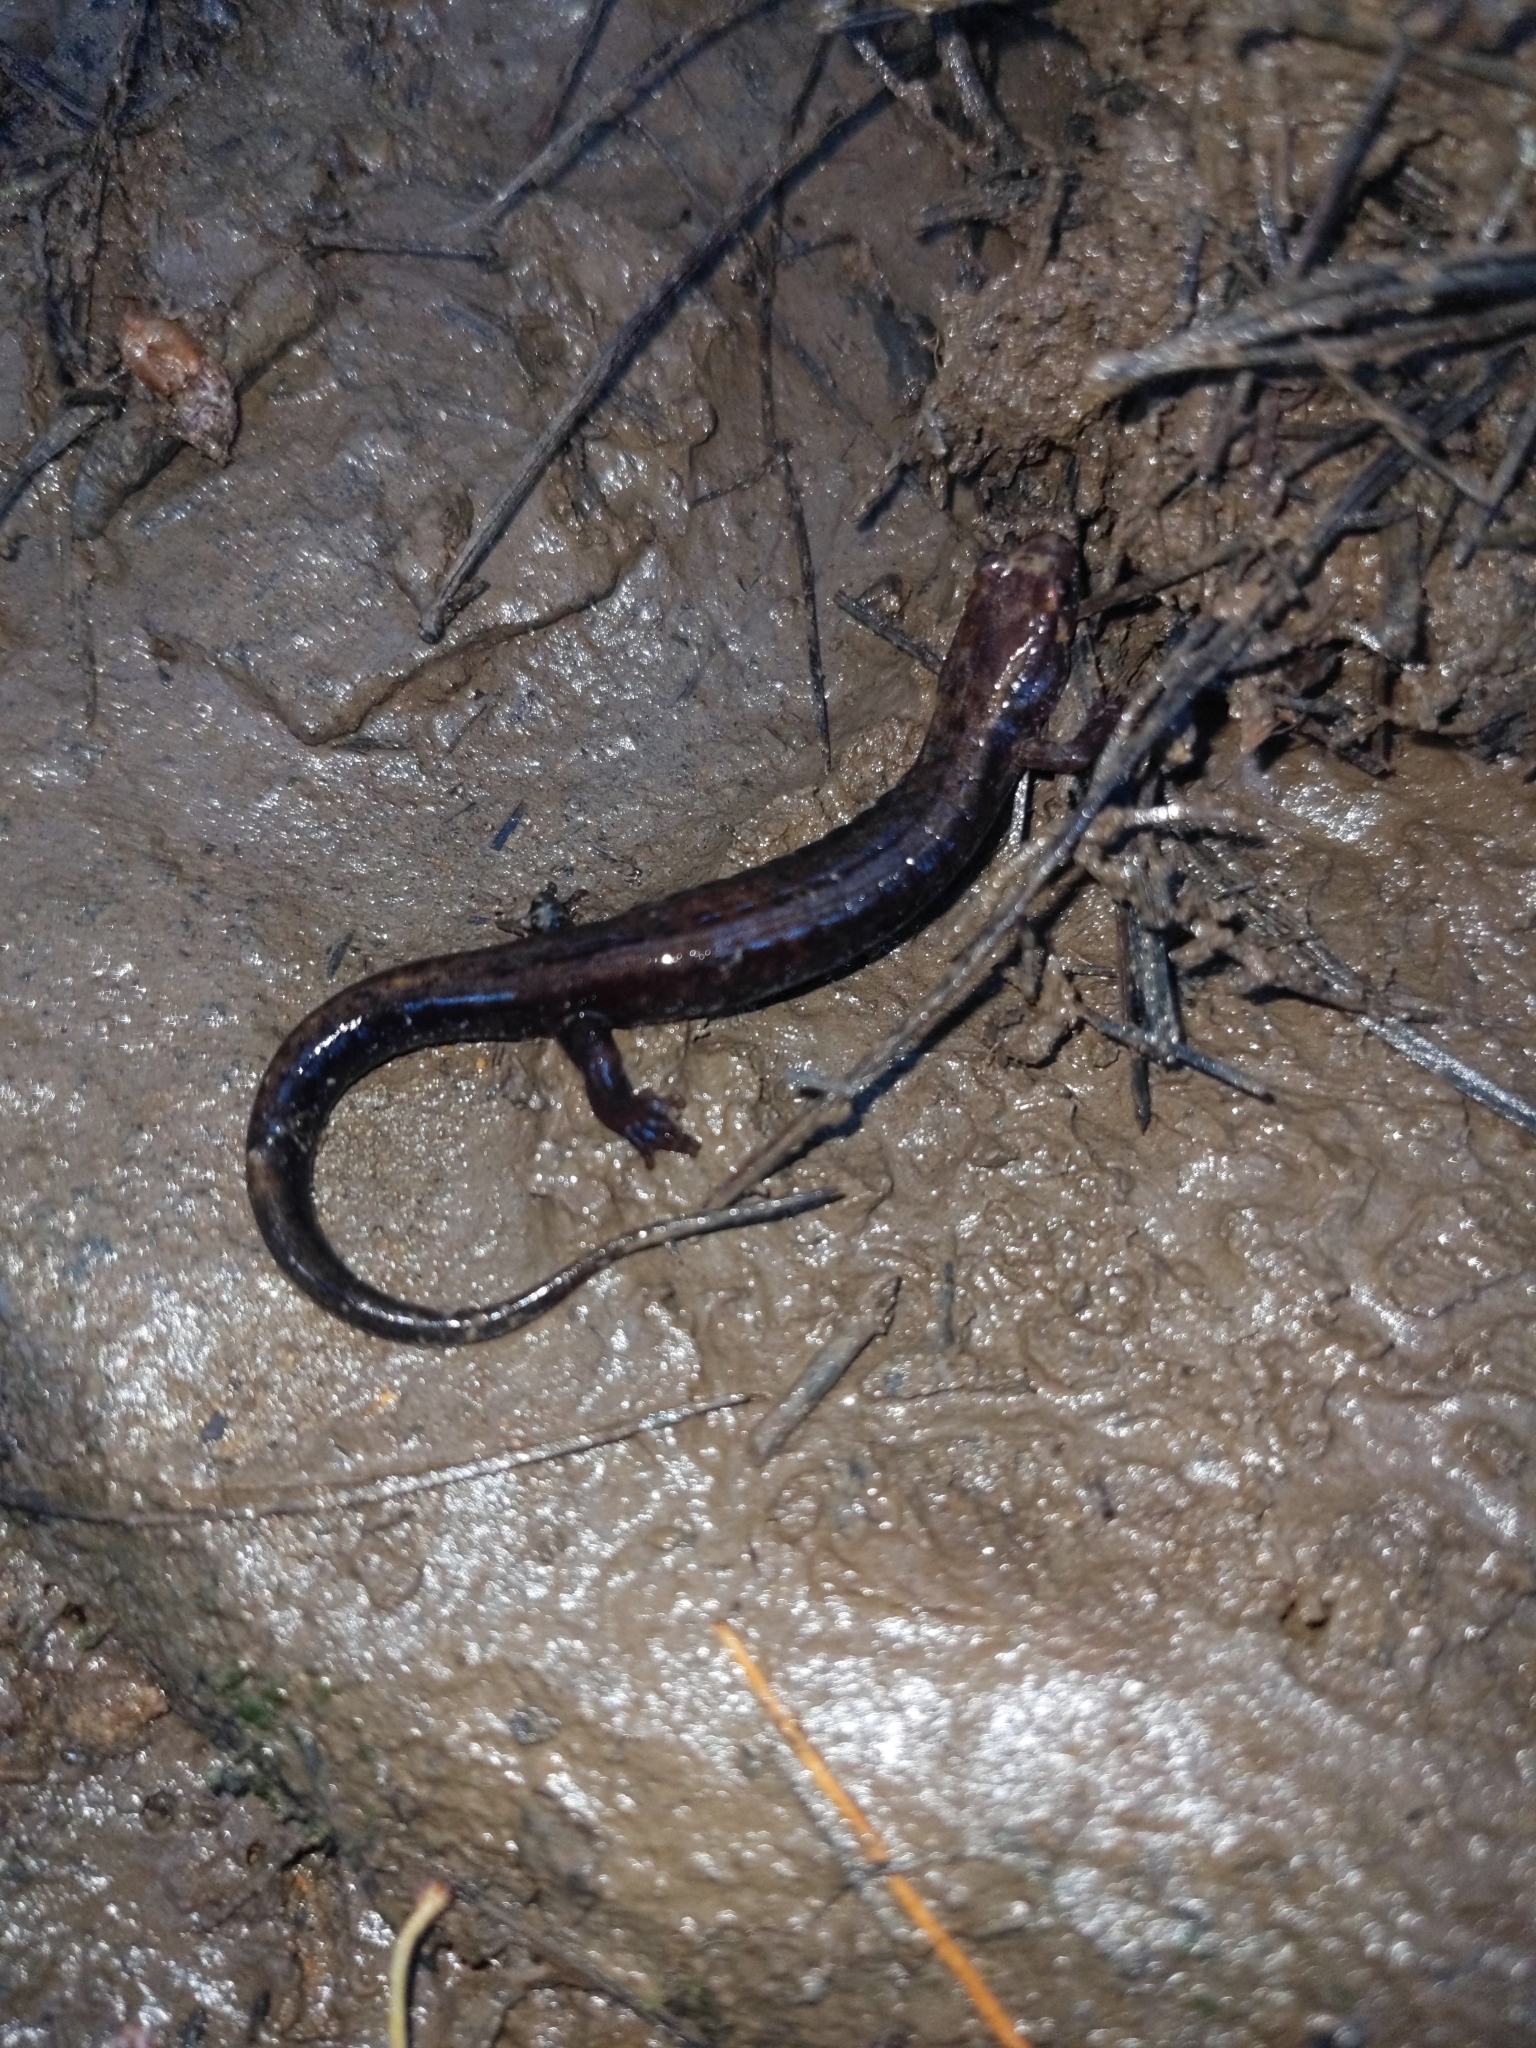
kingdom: Animalia
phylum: Chordata
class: Amphibia
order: Caudata
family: Plethodontidae
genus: Desmognathus
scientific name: Desmognathus ochrophaeus
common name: Allegheny mountain dusky salamander
